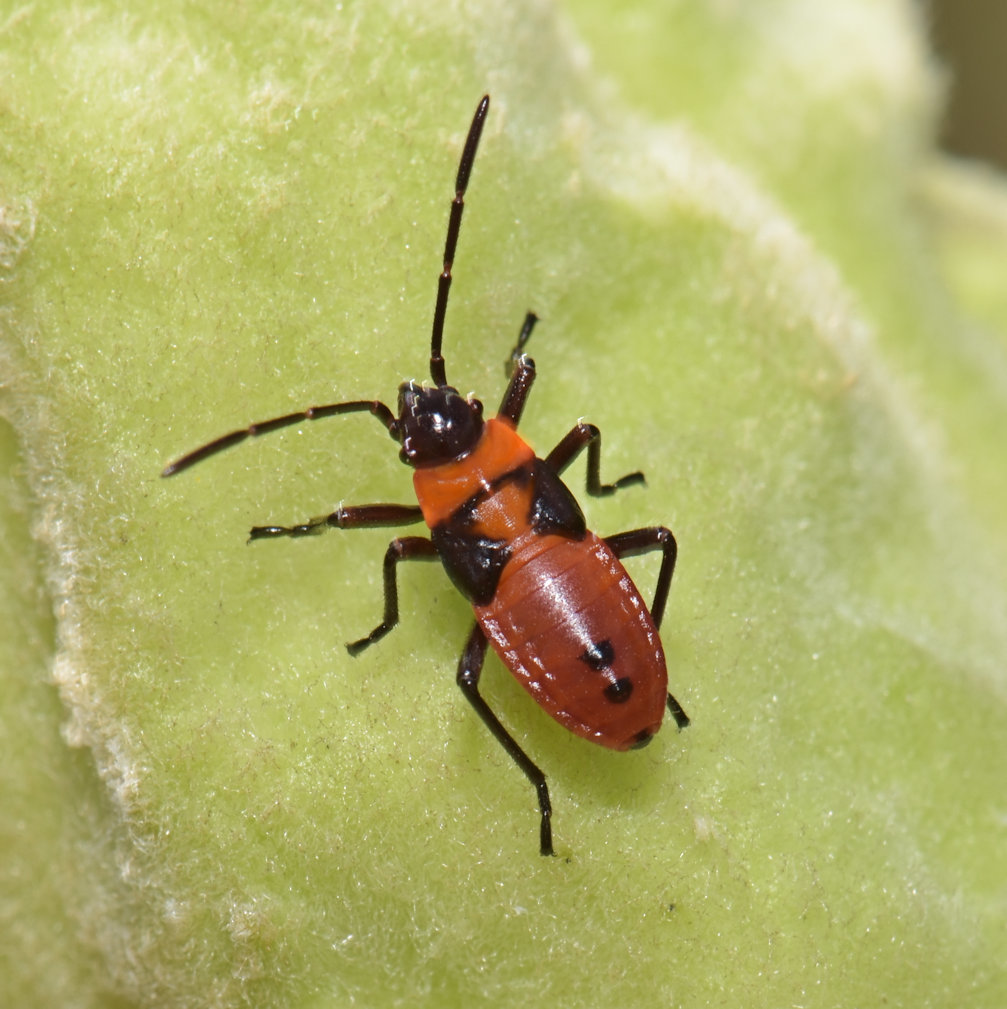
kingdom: Animalia
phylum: Arthropoda
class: Insecta
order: Hemiptera
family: Lygaeidae
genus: Oncopeltus
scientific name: Oncopeltus fasciatus
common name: Large milkweed bug
